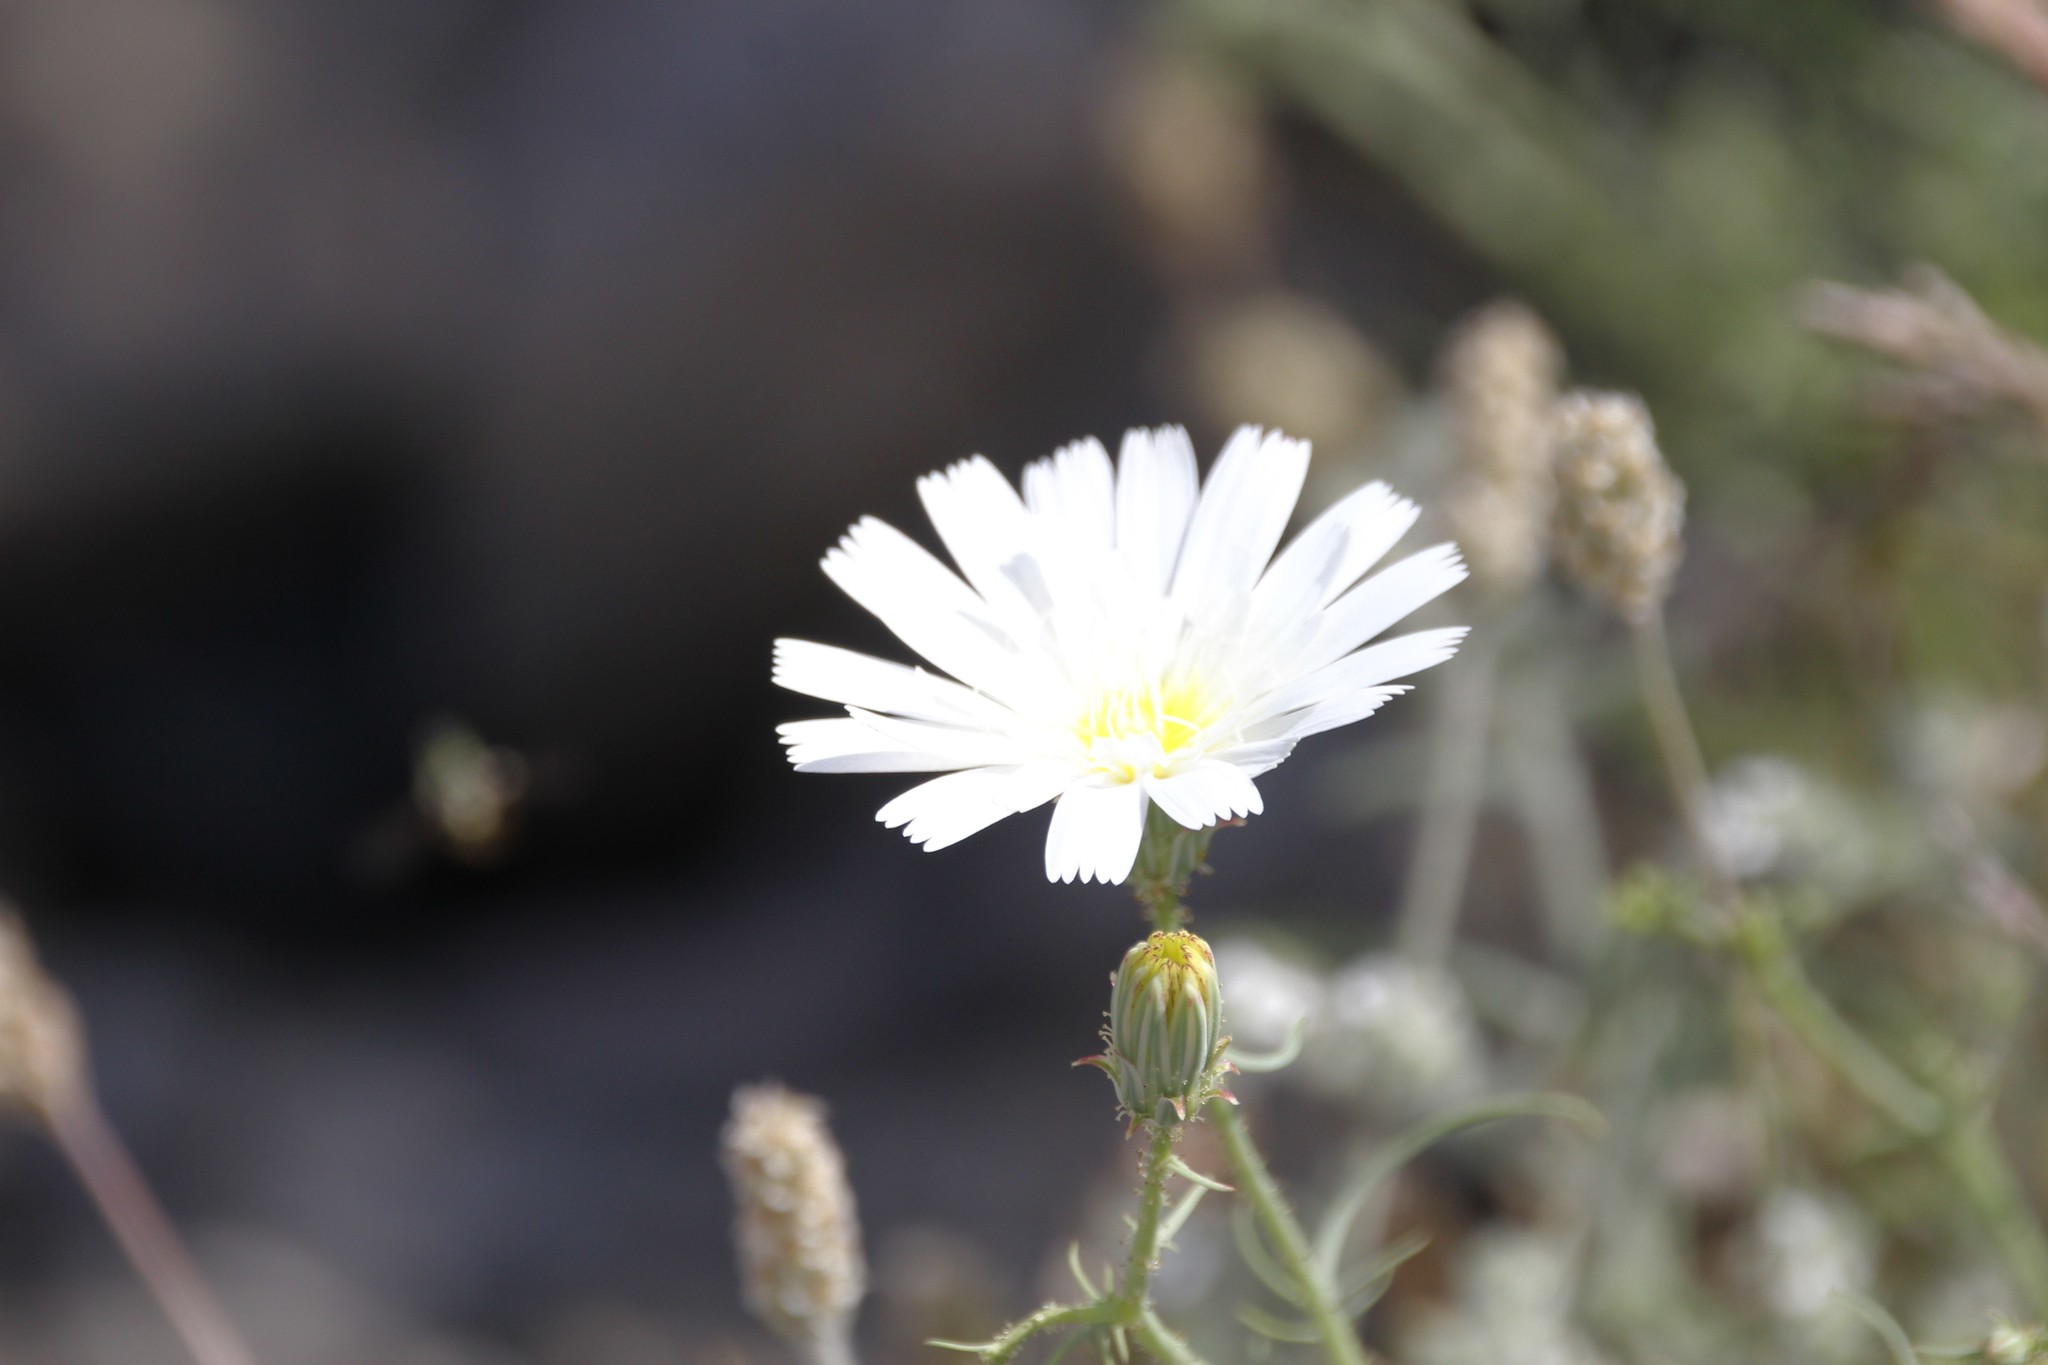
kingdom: Plantae
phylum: Tracheophyta
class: Magnoliopsida
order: Asterales
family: Asteraceae
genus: Calycoseris
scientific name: Calycoseris wrightii
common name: White tackstem
